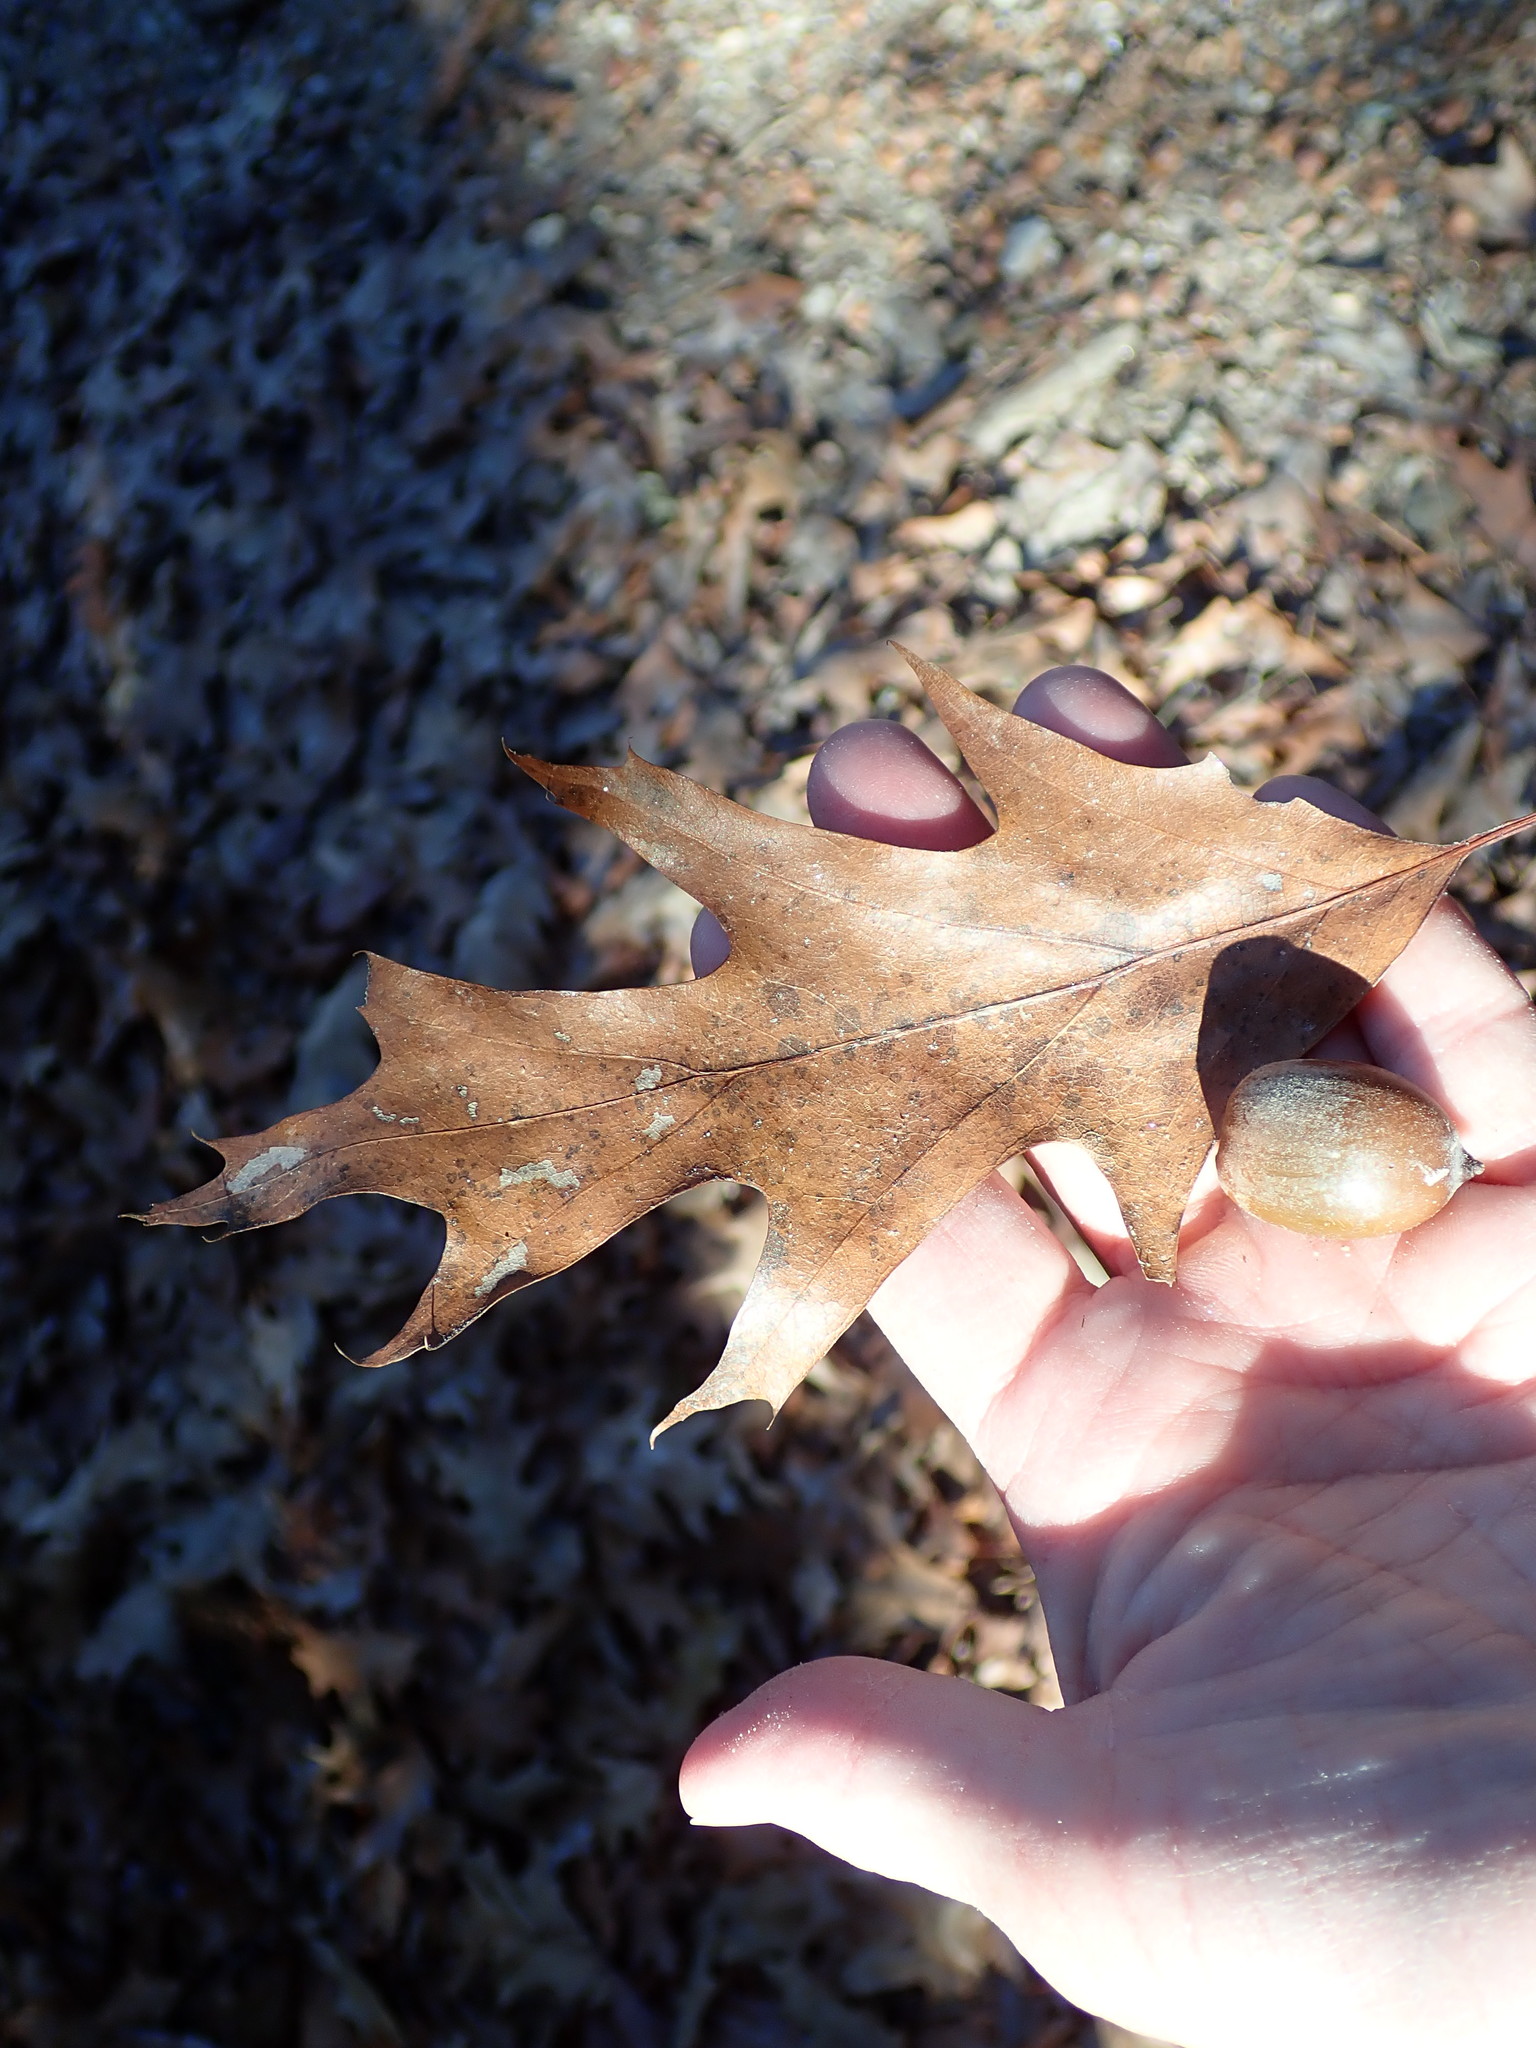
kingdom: Plantae
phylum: Tracheophyta
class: Magnoliopsida
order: Fagales
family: Fagaceae
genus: Quercus
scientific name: Quercus rubra
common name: Red oak
